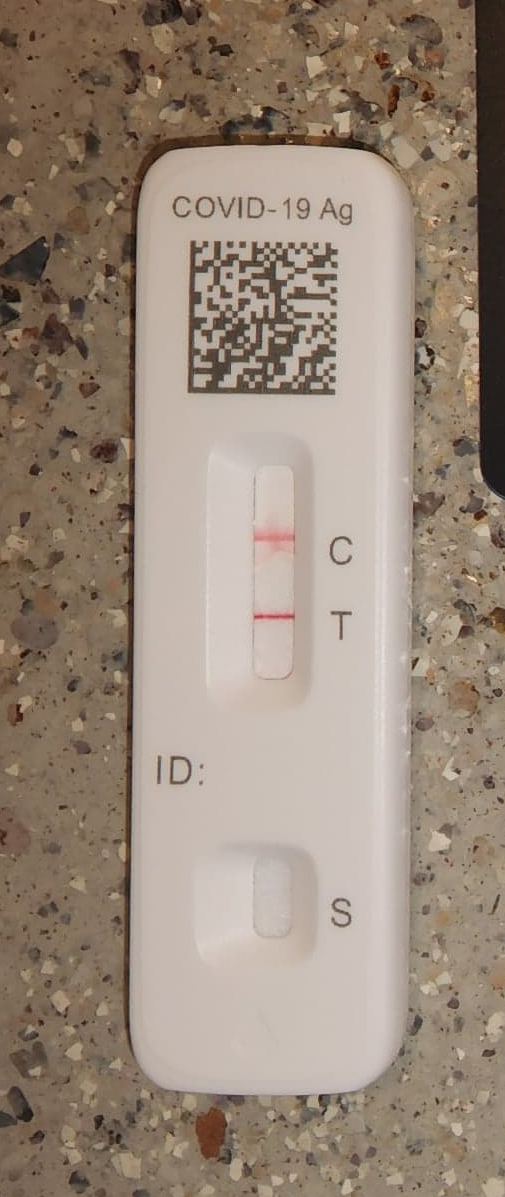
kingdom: Viruses
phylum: Pisuviricota
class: Pisoniviricetes
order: Nidovirales
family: Coronaviridae
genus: Betacoronavirus
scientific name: Betacoronavirus
